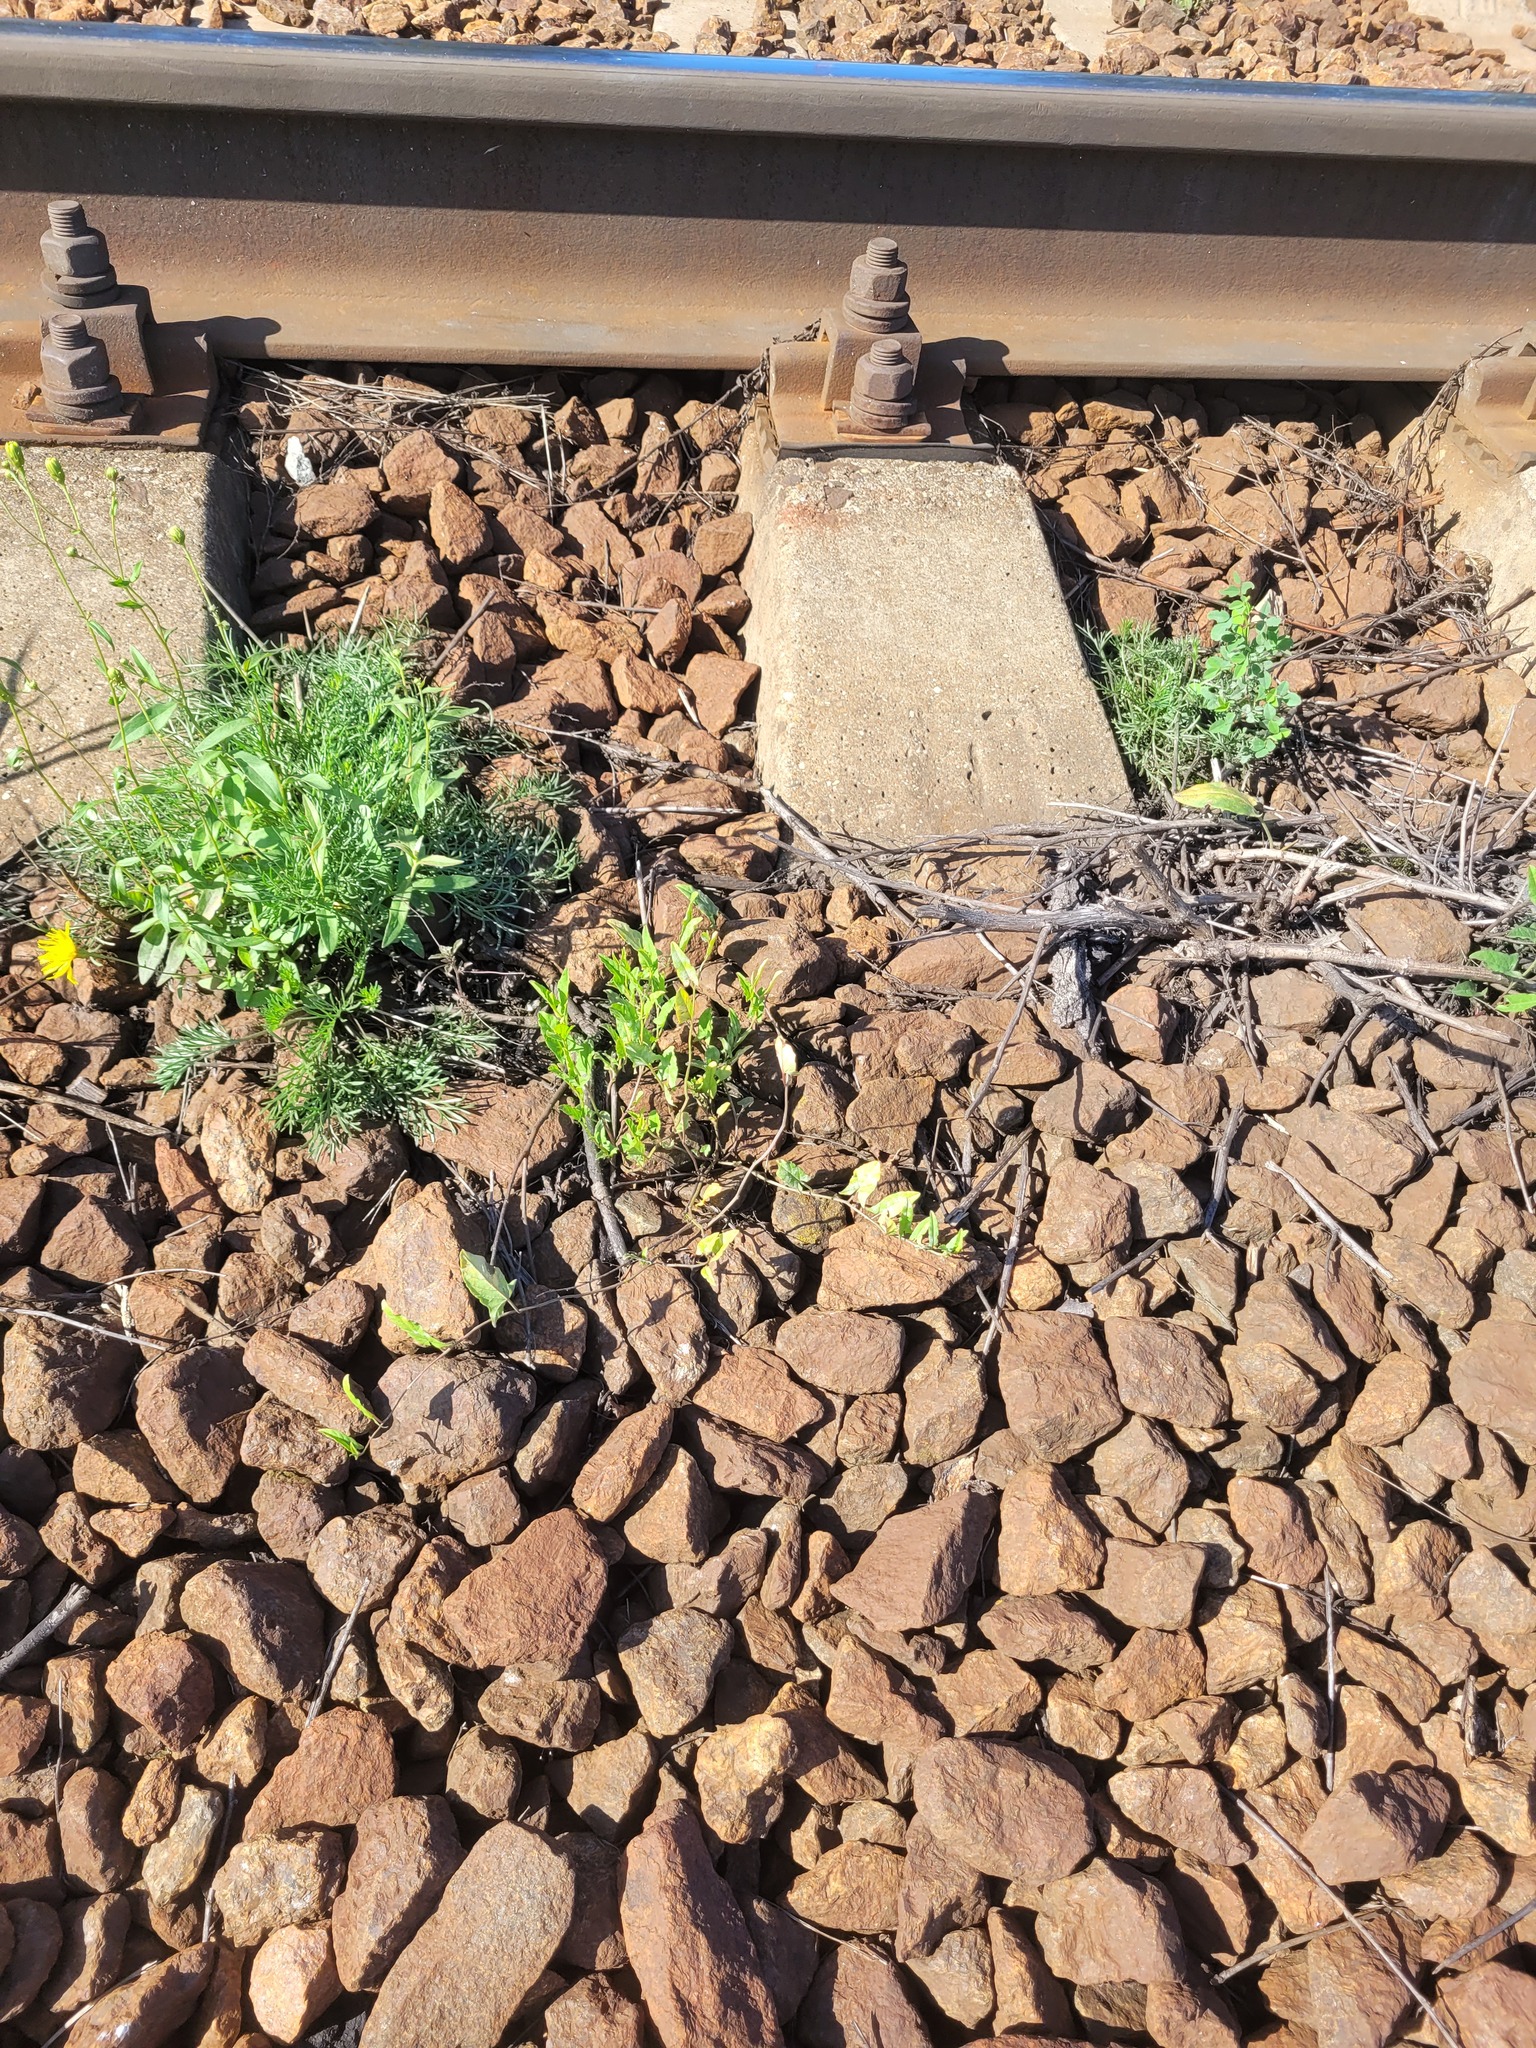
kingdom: Plantae
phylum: Tracheophyta
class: Magnoliopsida
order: Solanales
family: Convolvulaceae
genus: Convolvulus
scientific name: Convolvulus arvensis
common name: Field bindweed
